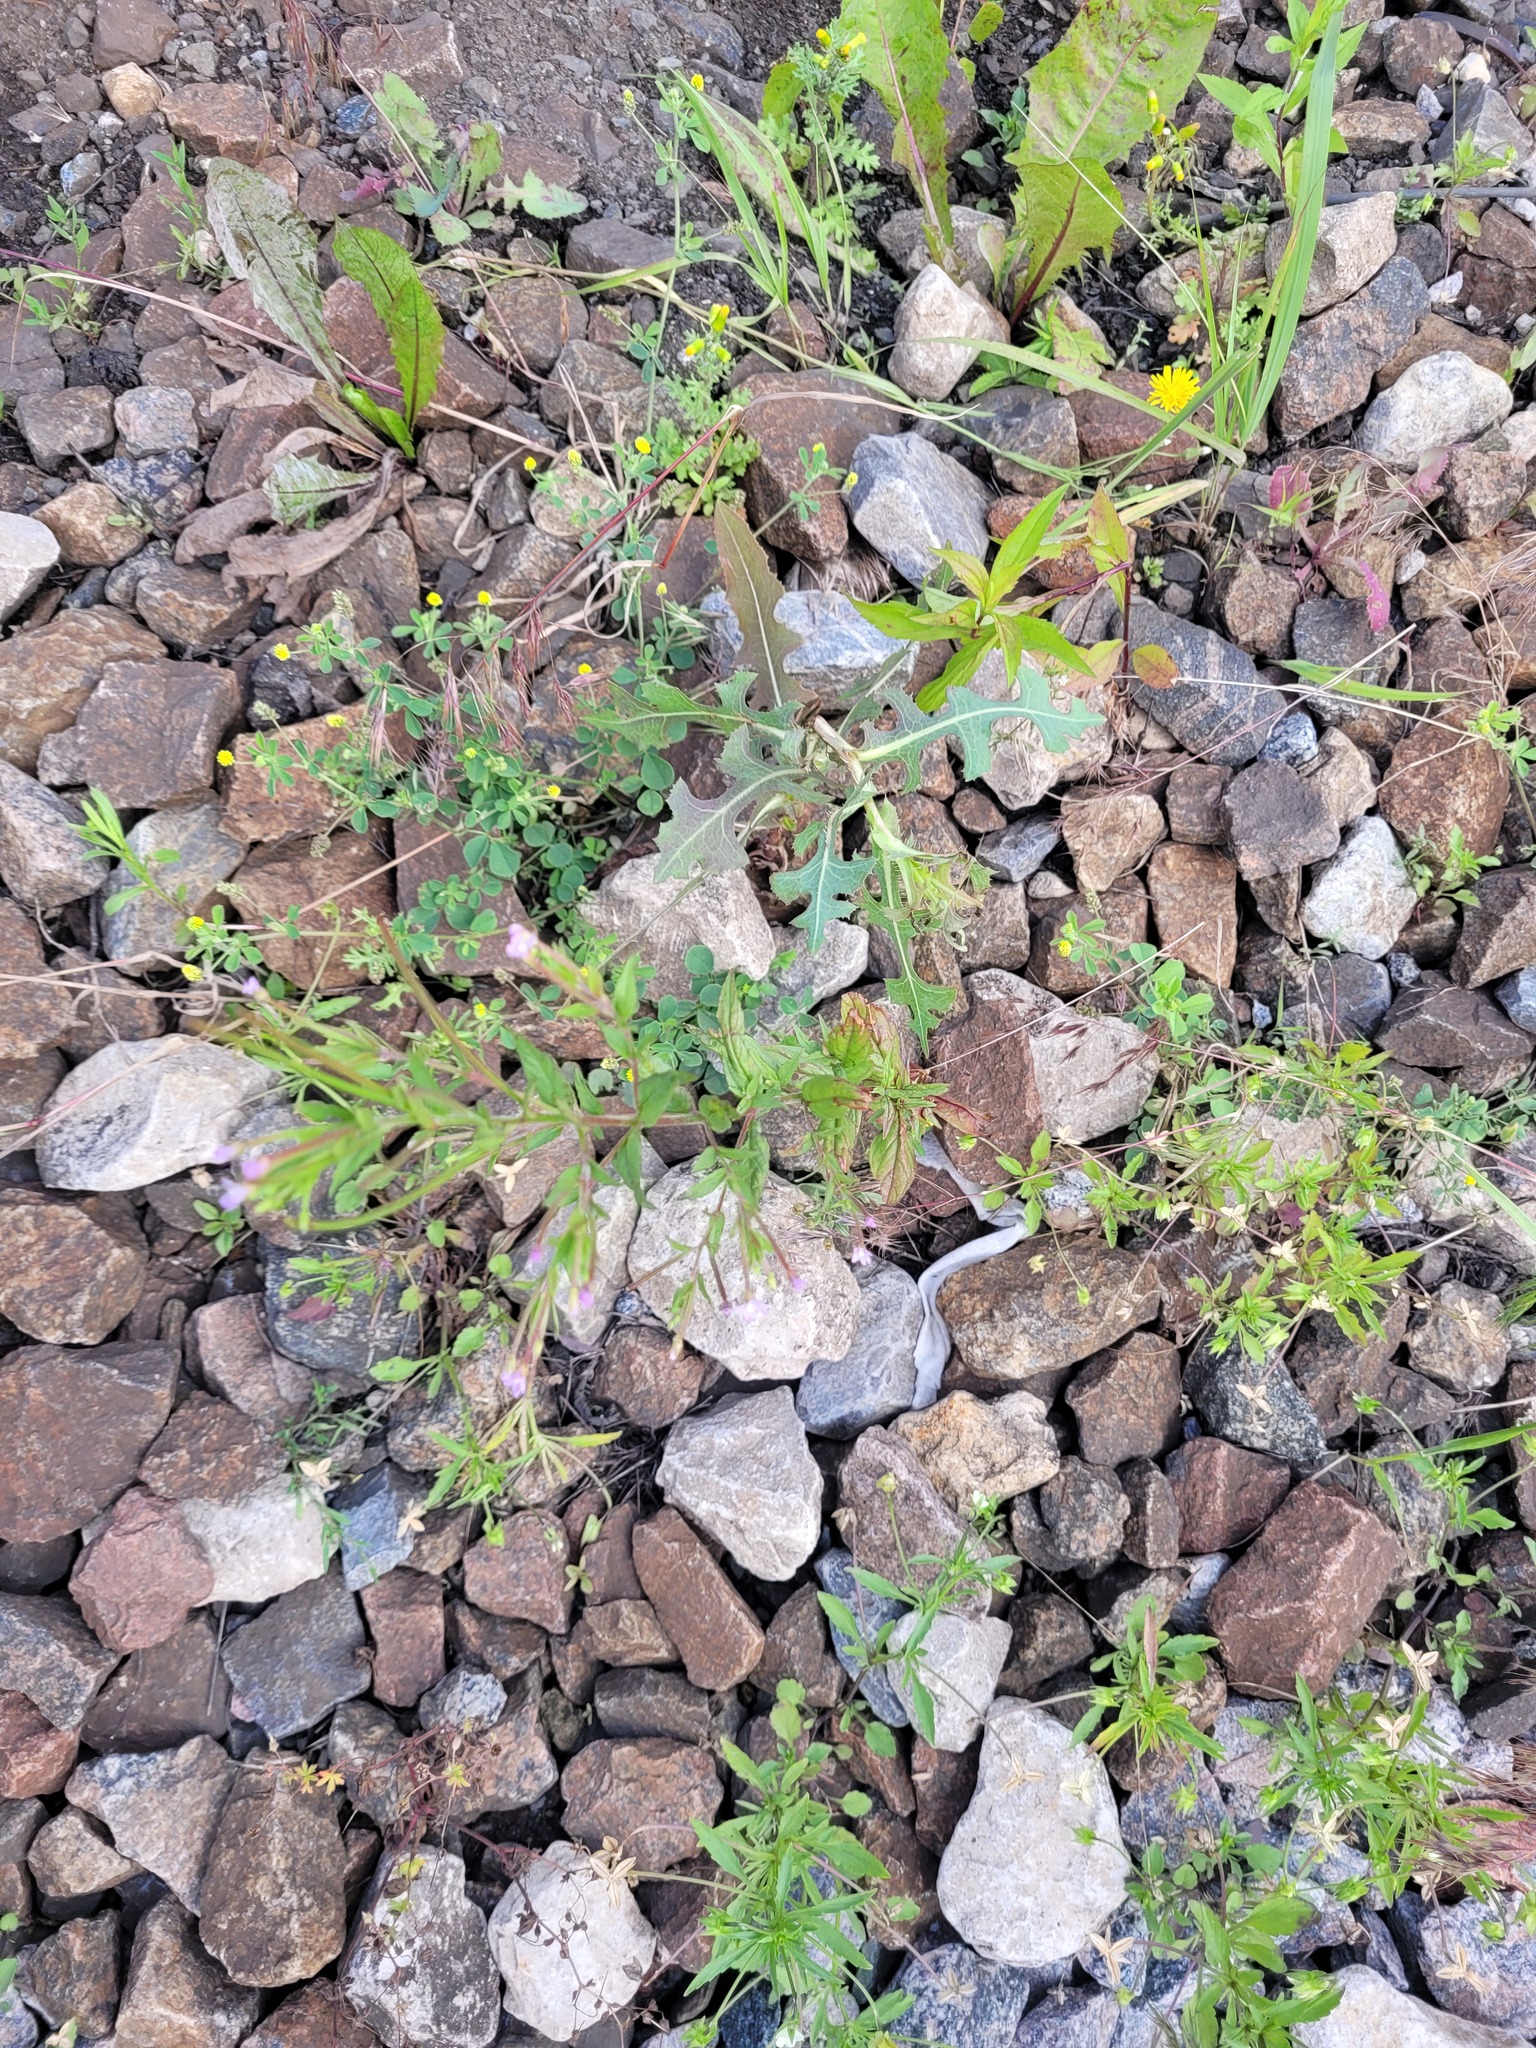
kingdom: Plantae
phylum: Tracheophyta
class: Magnoliopsida
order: Myrtales
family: Onagraceae
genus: Epilobium
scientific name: Epilobium ciliatum
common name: American willowherb
